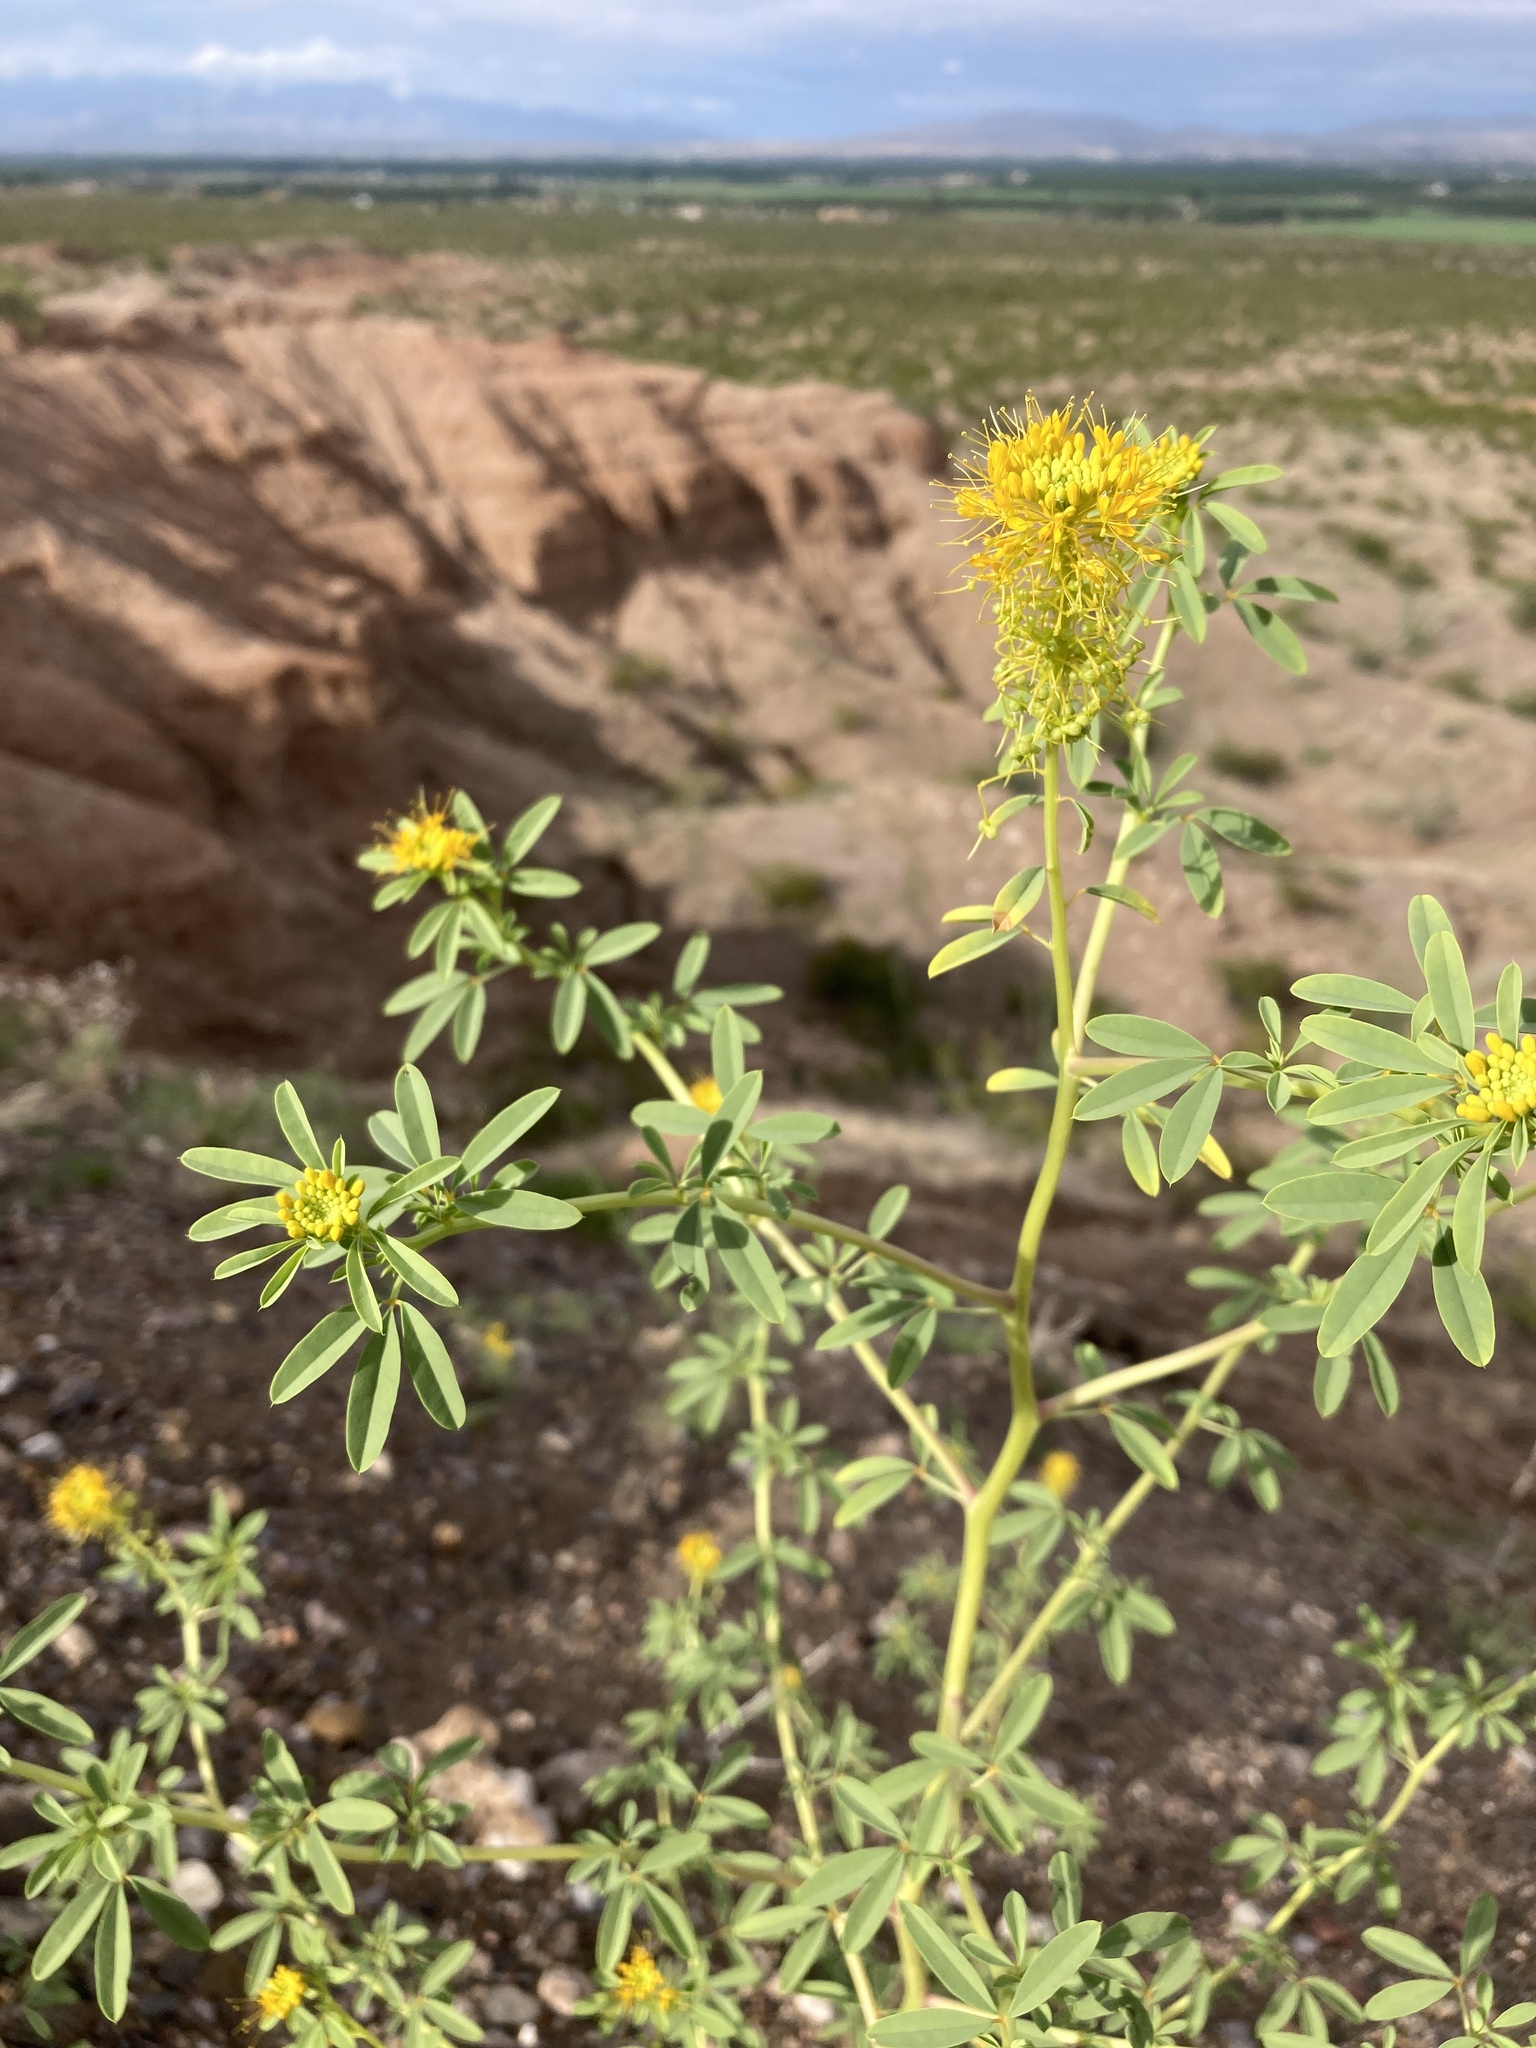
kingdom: Plantae
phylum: Tracheophyta
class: Magnoliopsida
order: Brassicales
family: Cleomaceae
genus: Cleomella
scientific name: Cleomella refracta
